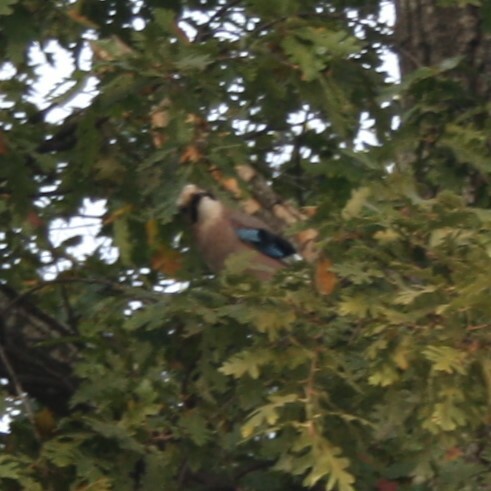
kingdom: Animalia
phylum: Chordata
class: Aves
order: Passeriformes
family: Corvidae
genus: Garrulus
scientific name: Garrulus glandarius
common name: Eurasian jay
